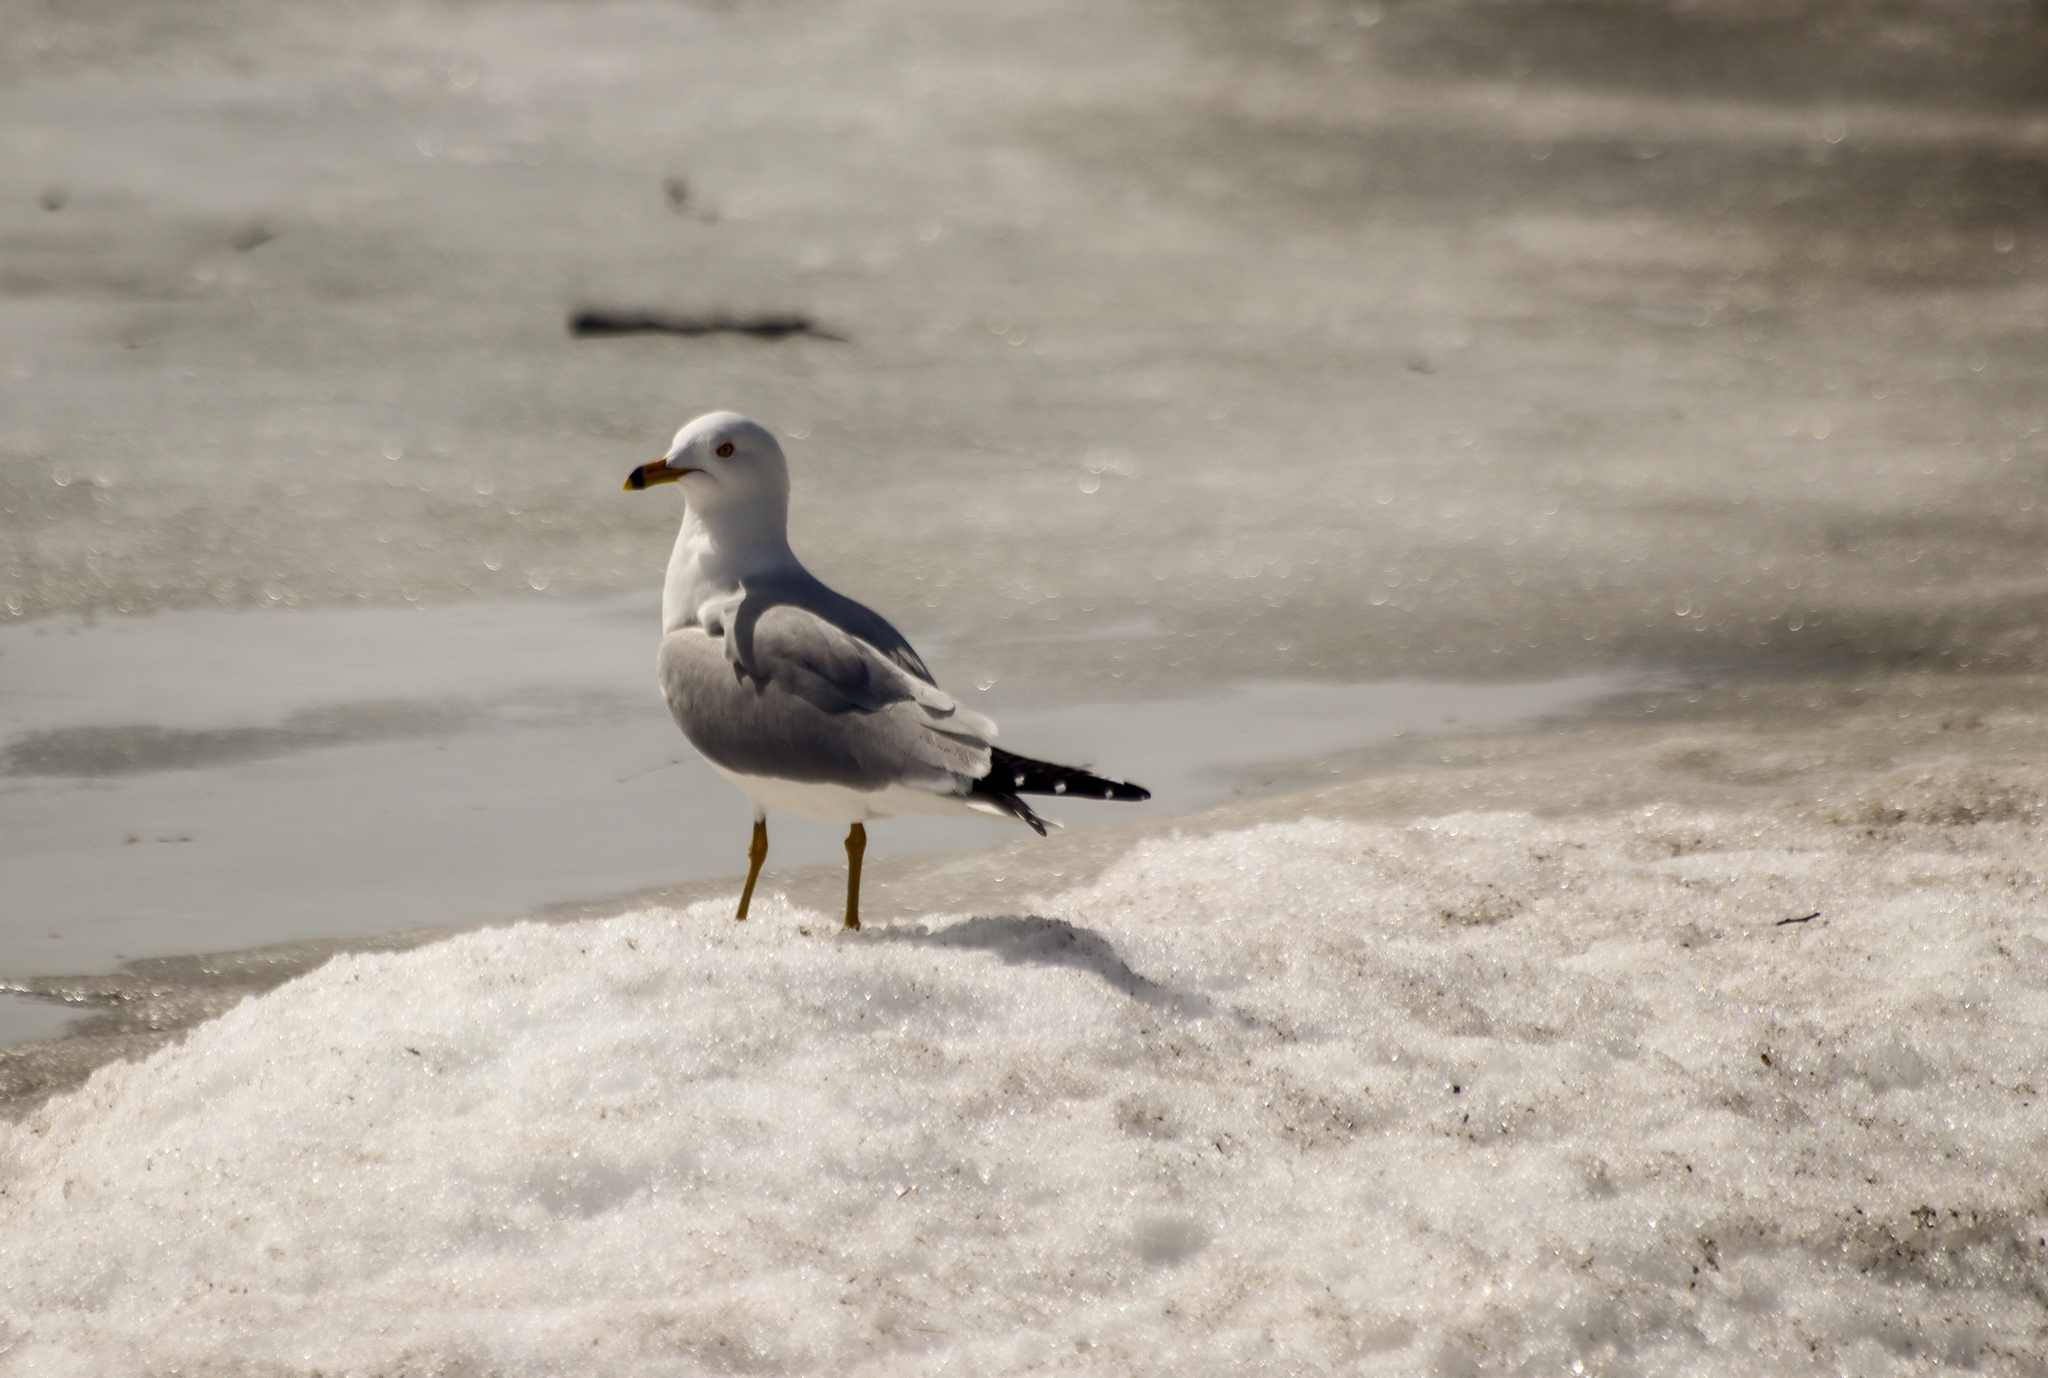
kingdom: Animalia
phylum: Chordata
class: Aves
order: Charadriiformes
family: Laridae
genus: Larus
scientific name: Larus delawarensis
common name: Ring-billed gull
